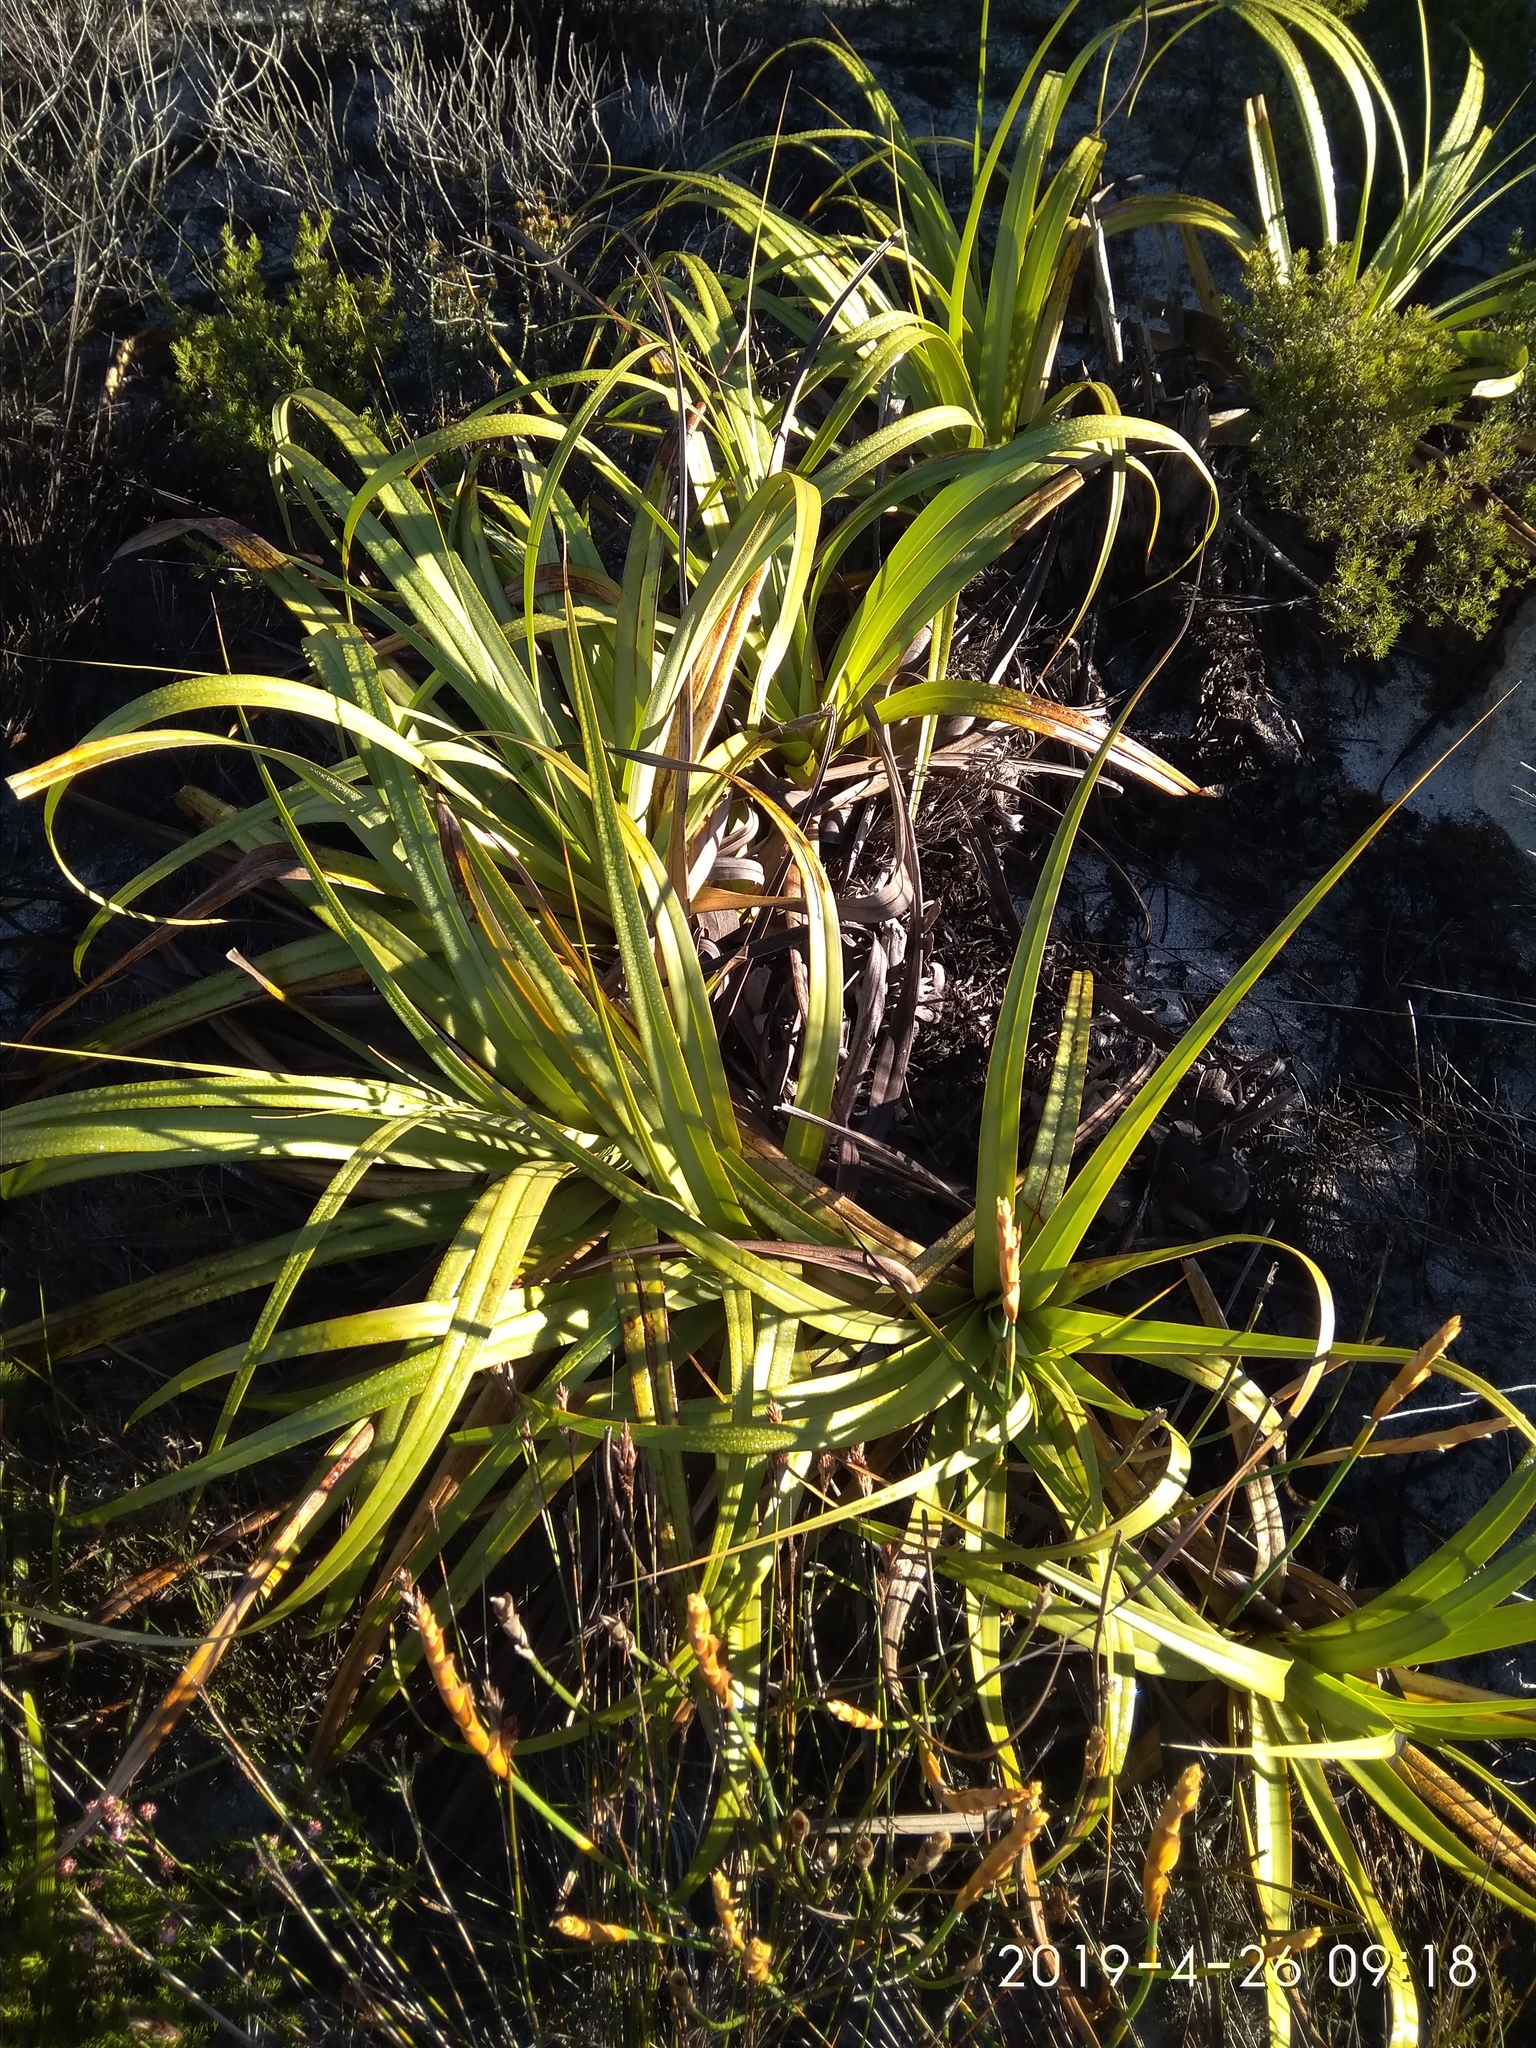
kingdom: Plantae
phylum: Tracheophyta
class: Liliopsida
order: Poales
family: Cyperaceae
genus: Tetraria
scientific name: Tetraria thermalis
